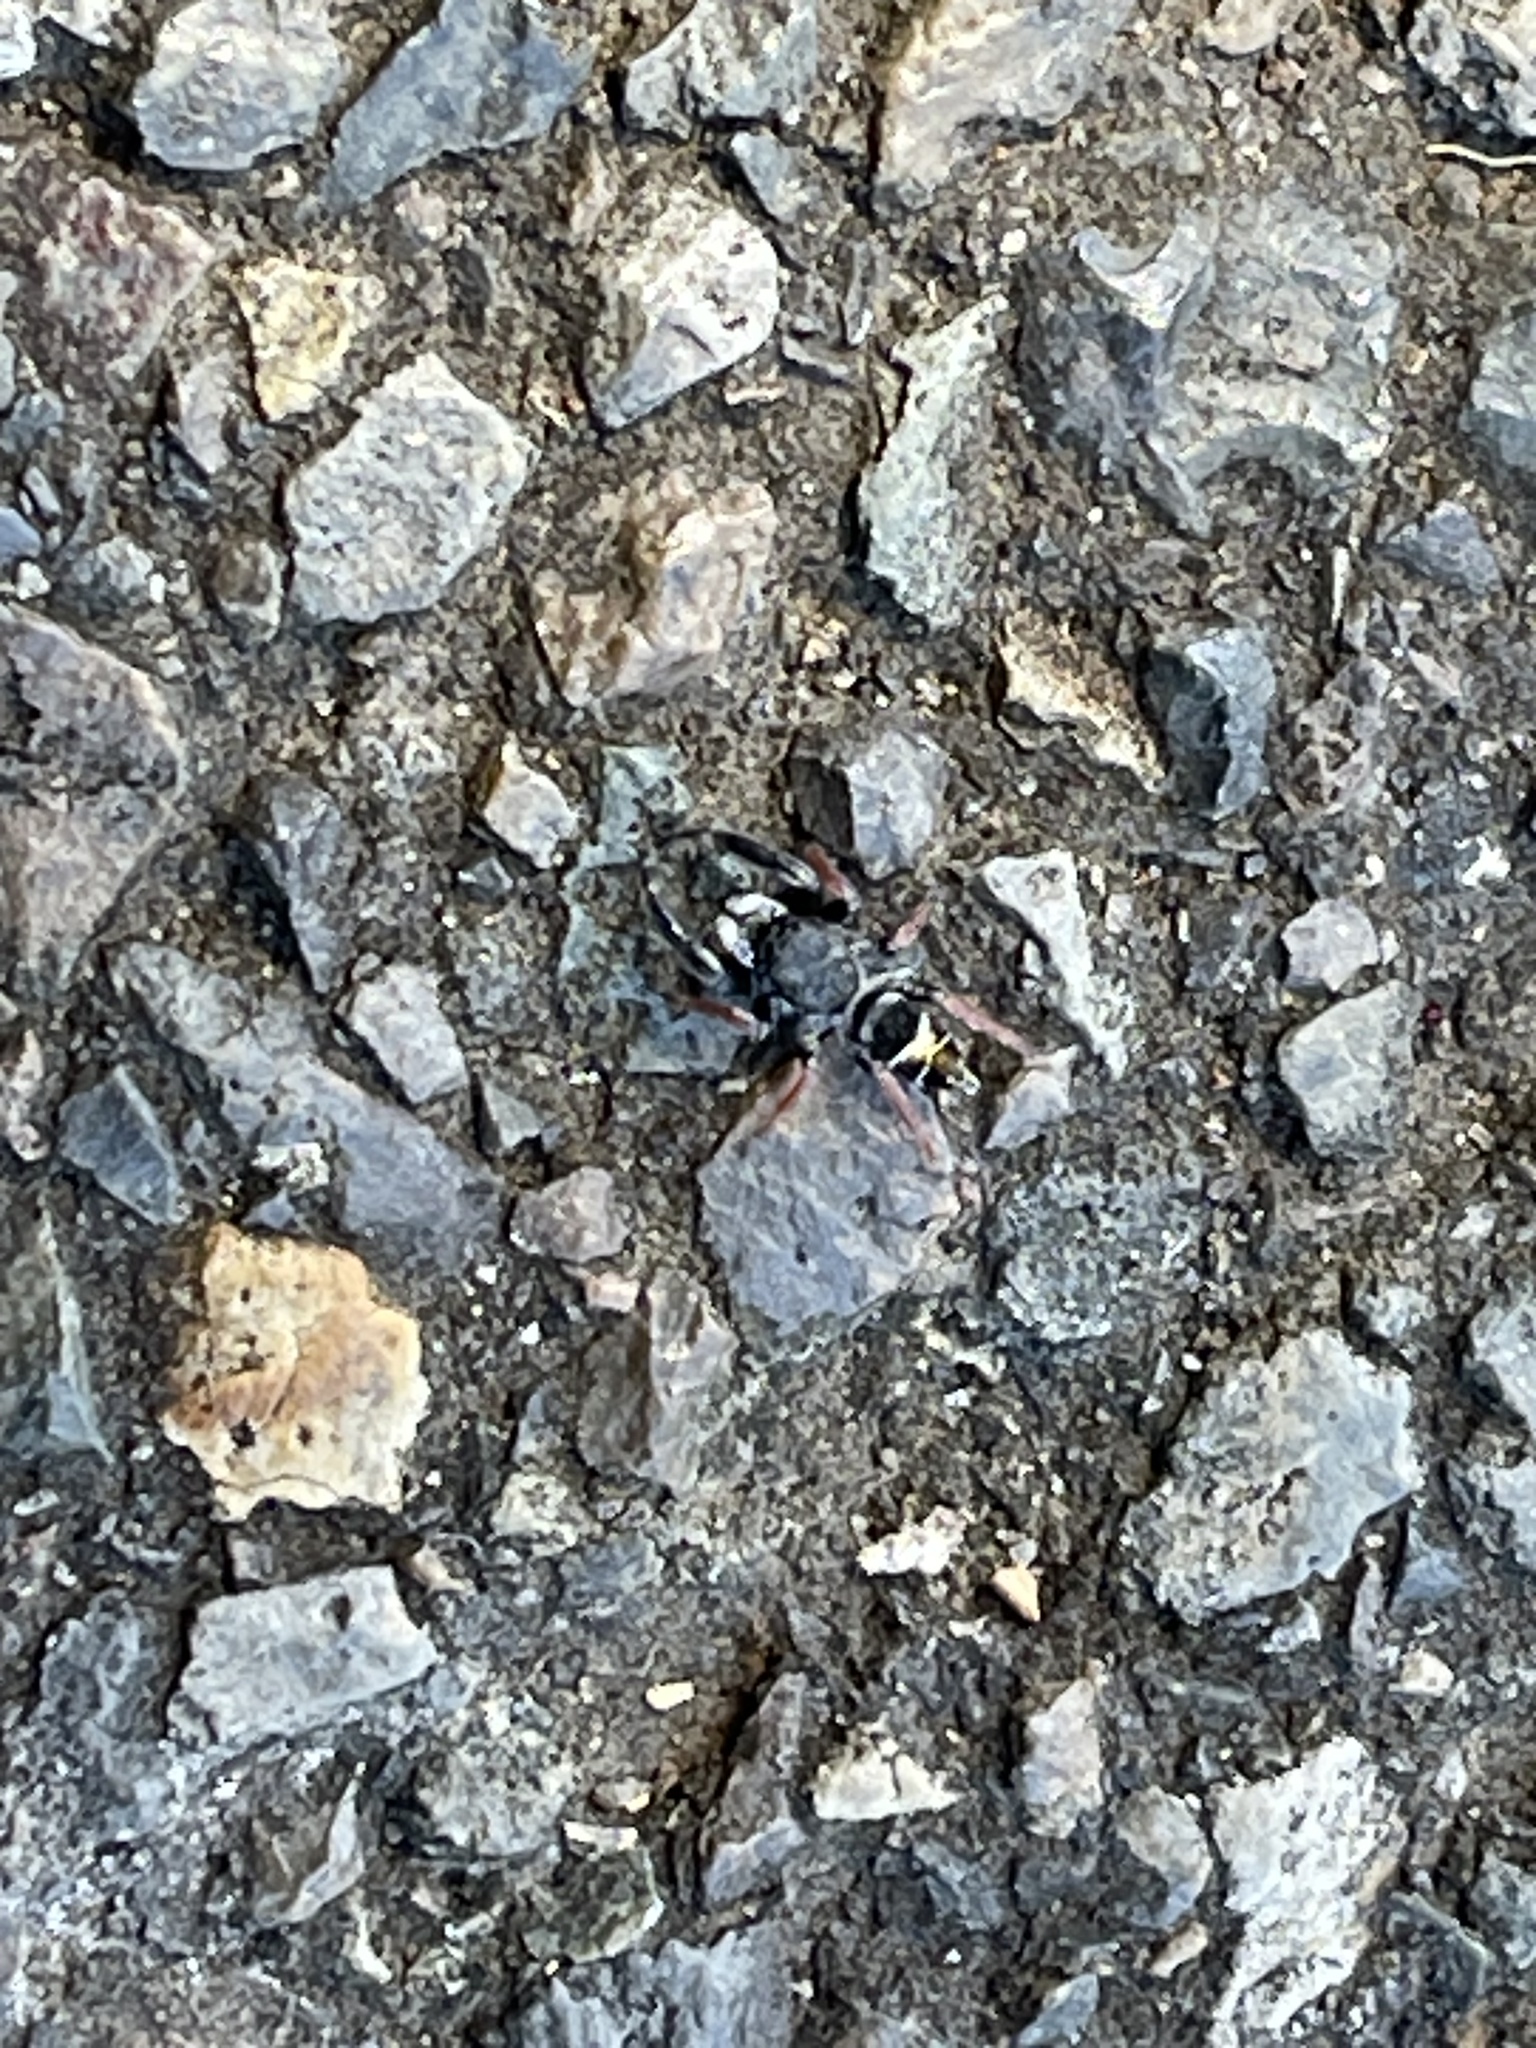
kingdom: Animalia
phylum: Arthropoda
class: Arachnida
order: Araneae
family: Salticidae
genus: Apricia
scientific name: Apricia jovialis
